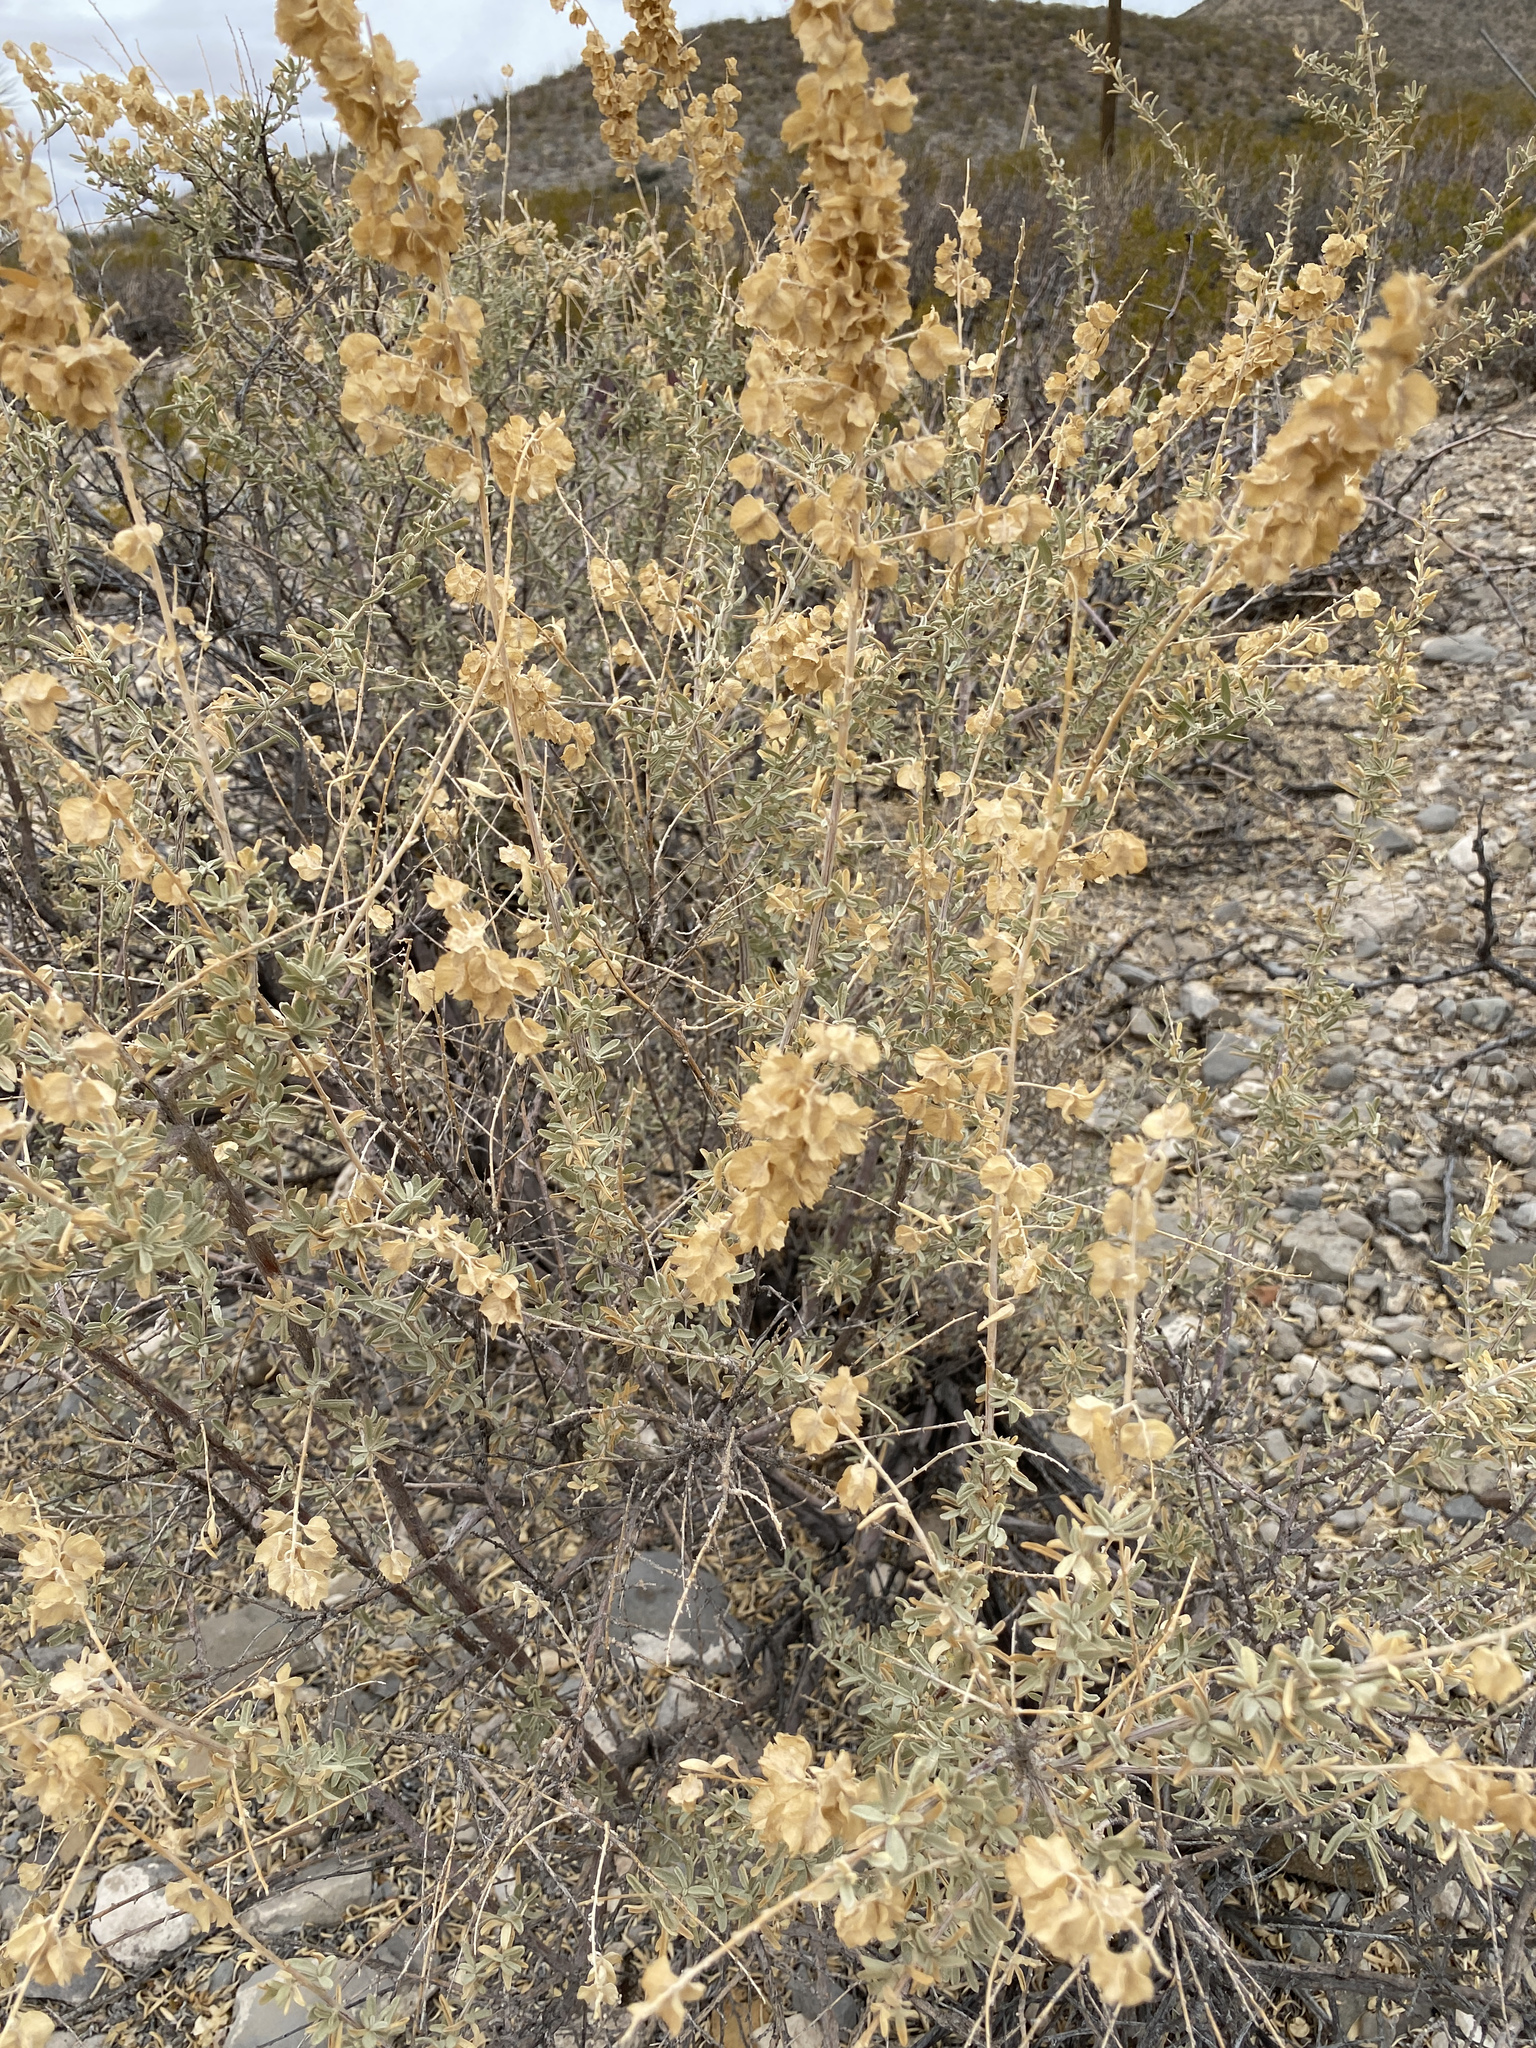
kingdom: Plantae
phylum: Tracheophyta
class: Magnoliopsida
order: Caryophyllales
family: Amaranthaceae
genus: Atriplex
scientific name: Atriplex canescens
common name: Four-wing saltbush
